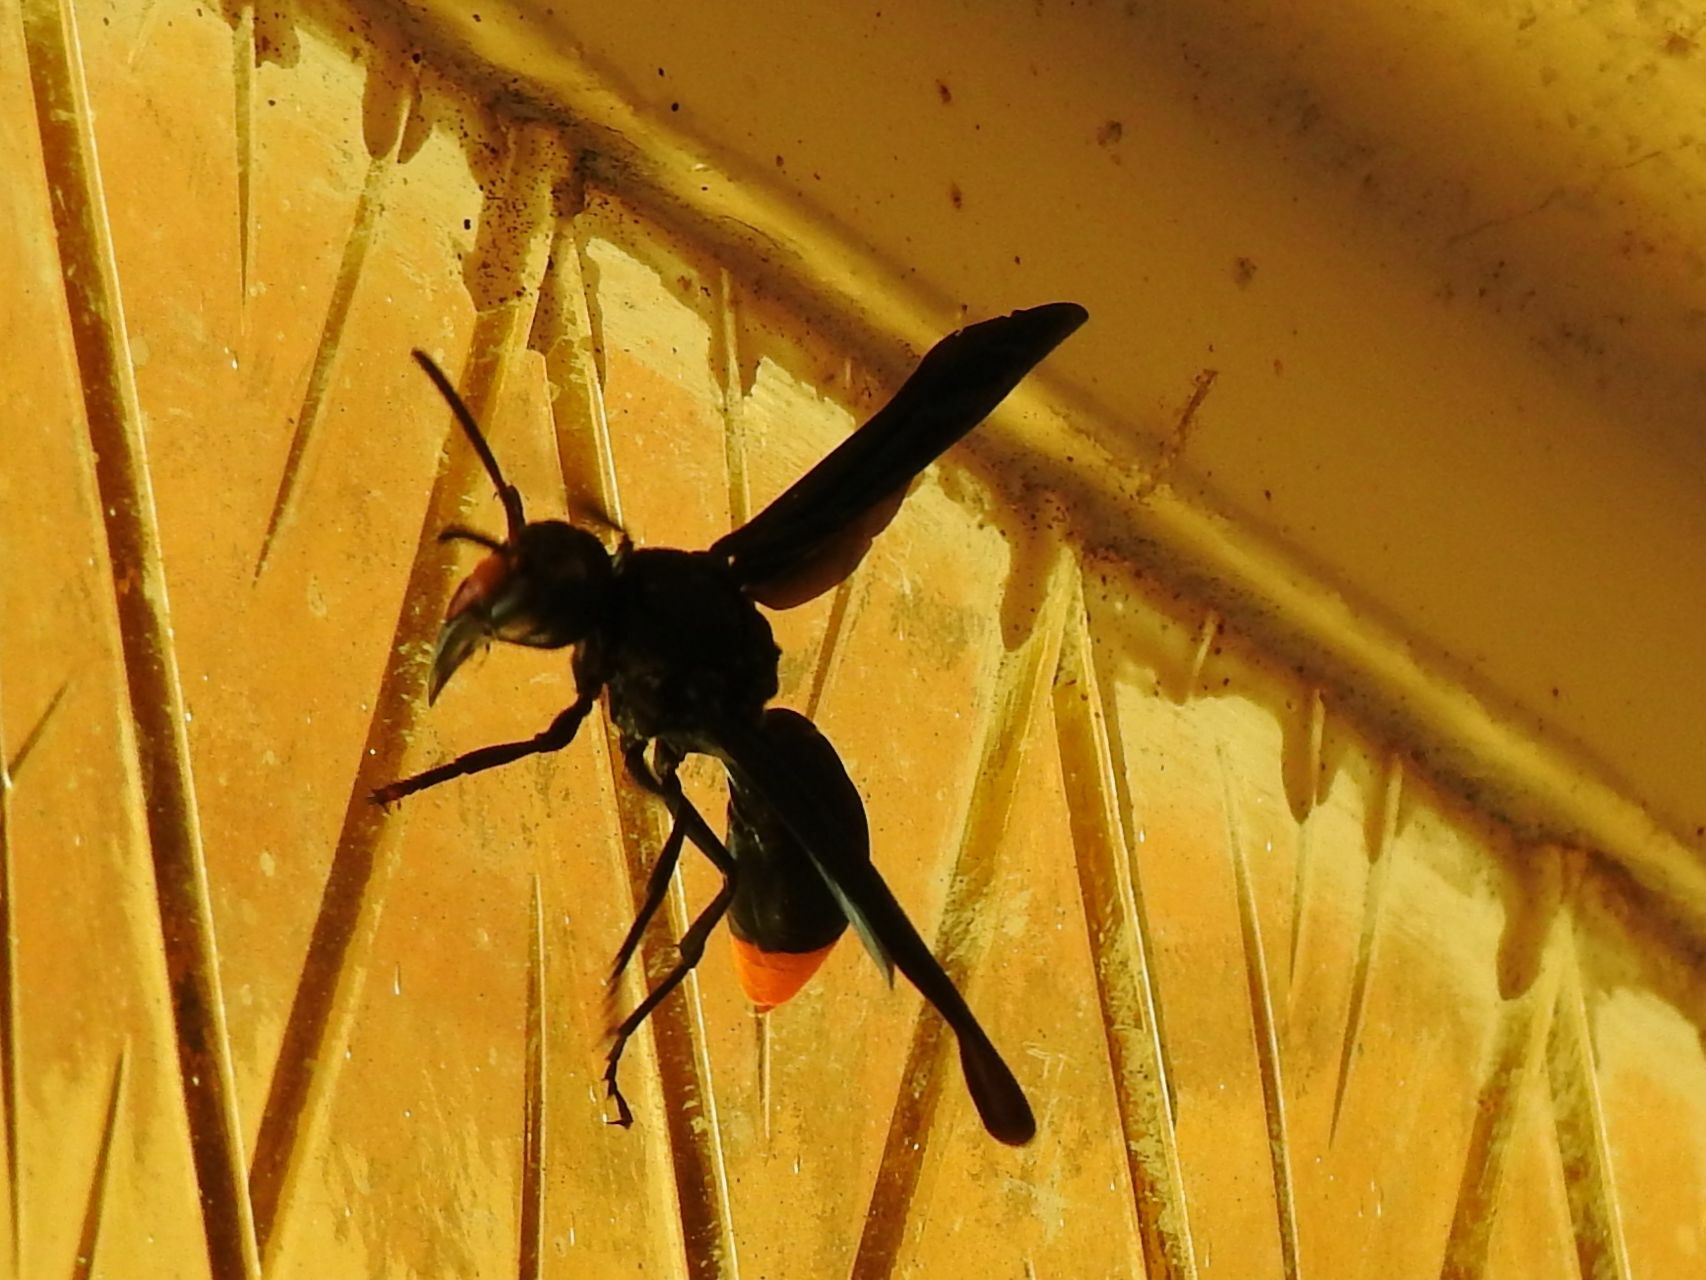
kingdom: Animalia
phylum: Arthropoda
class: Insecta
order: Hymenoptera
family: Vespidae
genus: Synagris
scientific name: Synagris analis
